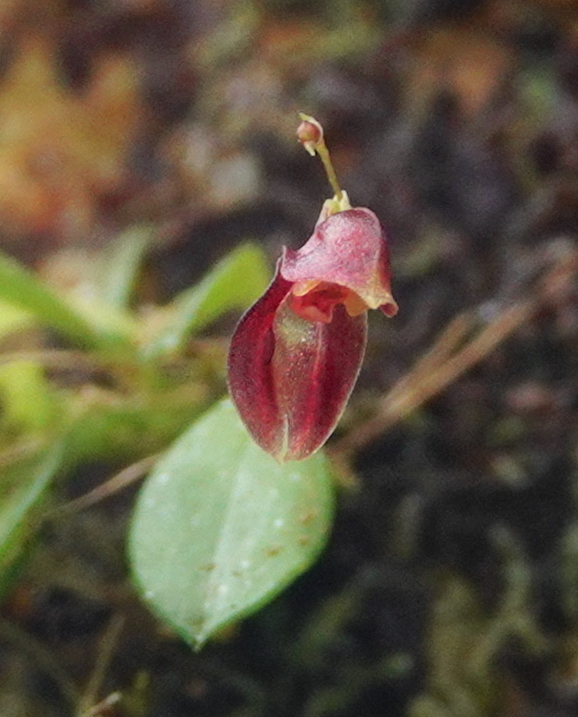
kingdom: Plantae
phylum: Tracheophyta
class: Liliopsida
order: Asparagales
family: Orchidaceae
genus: Specklinia
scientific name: Specklinia colombiana
